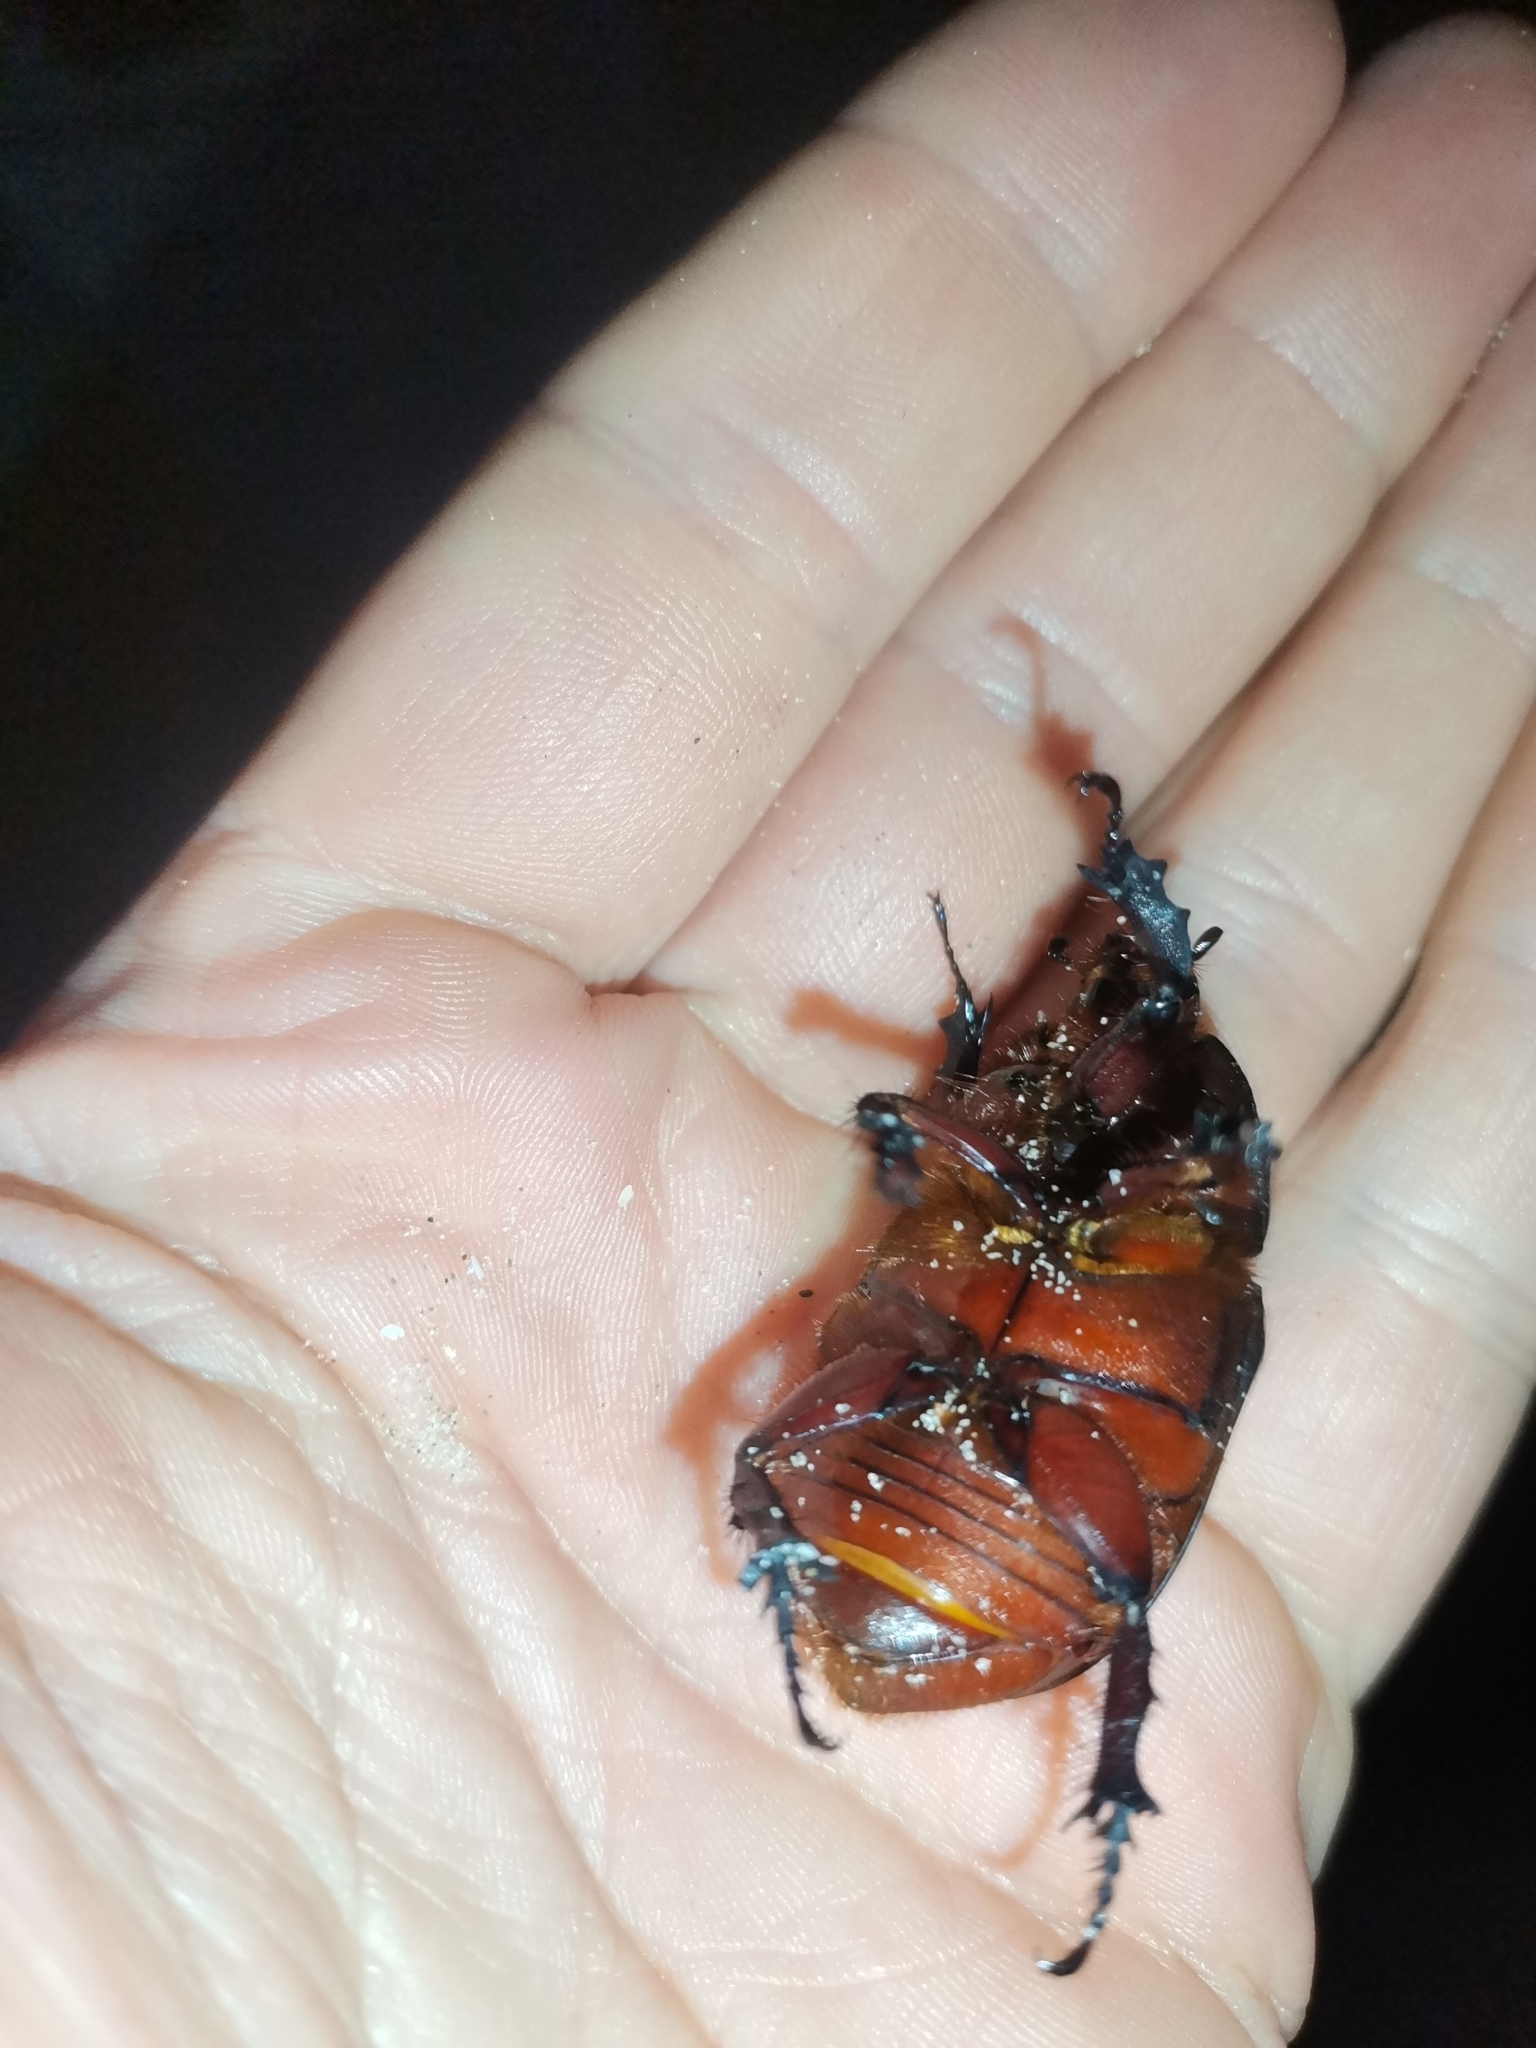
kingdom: Animalia
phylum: Arthropoda
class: Insecta
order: Coleoptera
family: Scarabaeidae
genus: Oryctes
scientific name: Oryctes nasicornis
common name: European rhinoceros beetle
